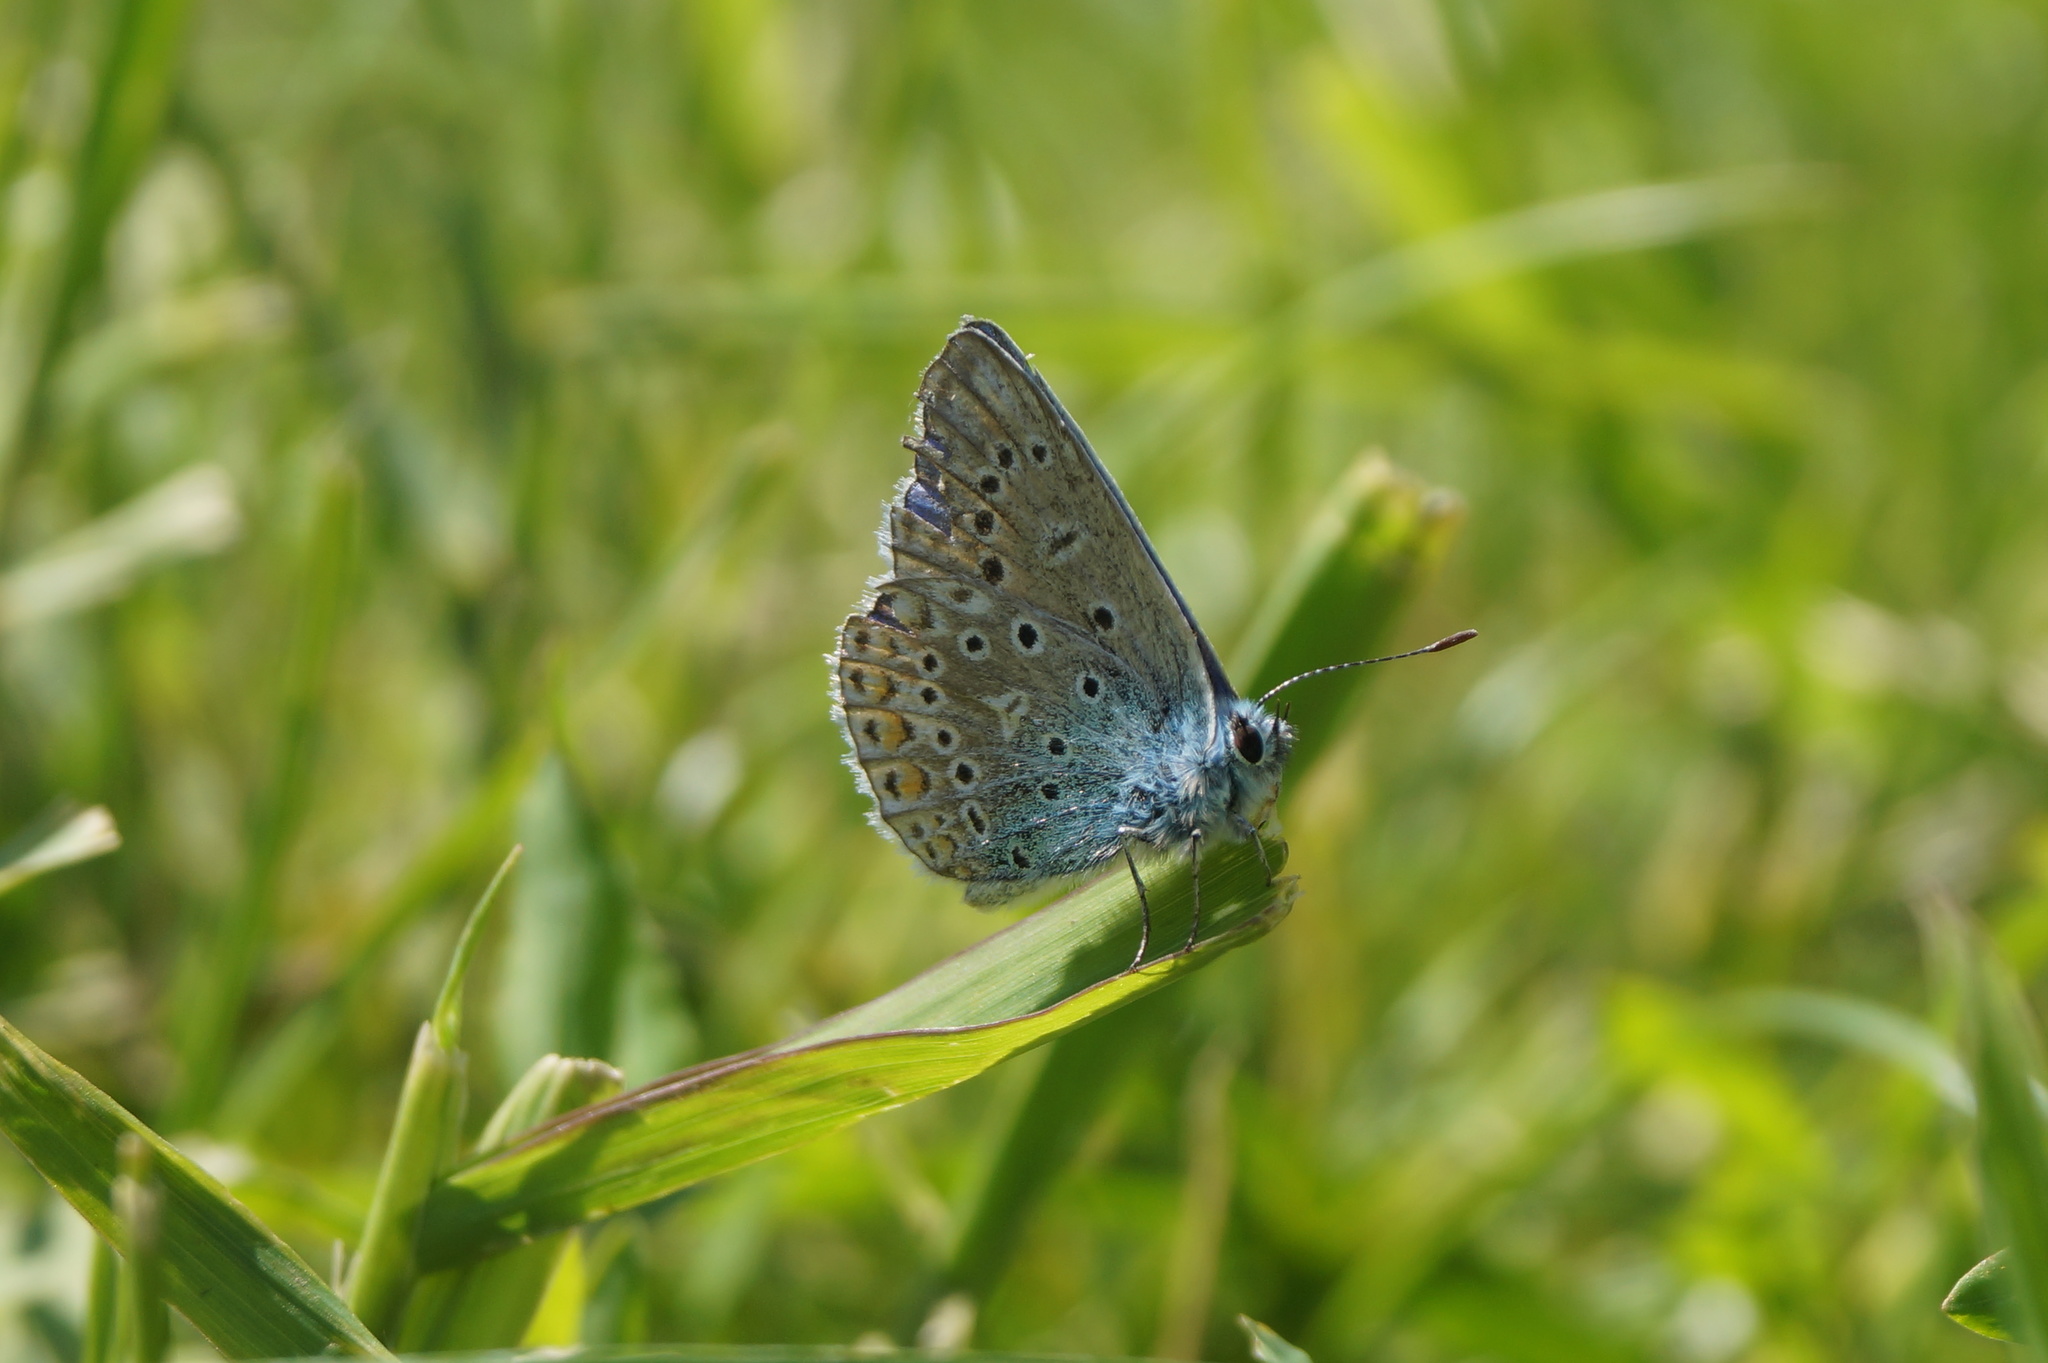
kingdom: Animalia
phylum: Arthropoda
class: Insecta
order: Lepidoptera
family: Lycaenidae
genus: Polyommatus
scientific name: Polyommatus icarus
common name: Common blue
